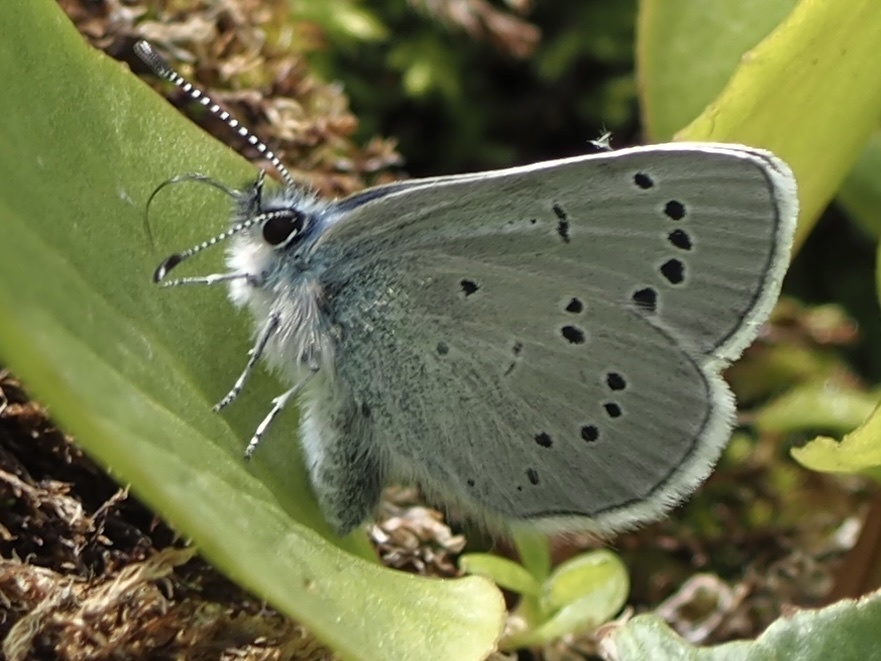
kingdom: Animalia
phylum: Arthropoda
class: Insecta
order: Lepidoptera
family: Lycaenidae
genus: Glaucopsyche
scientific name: Glaucopsyche lygdamus
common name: Silvery blue
